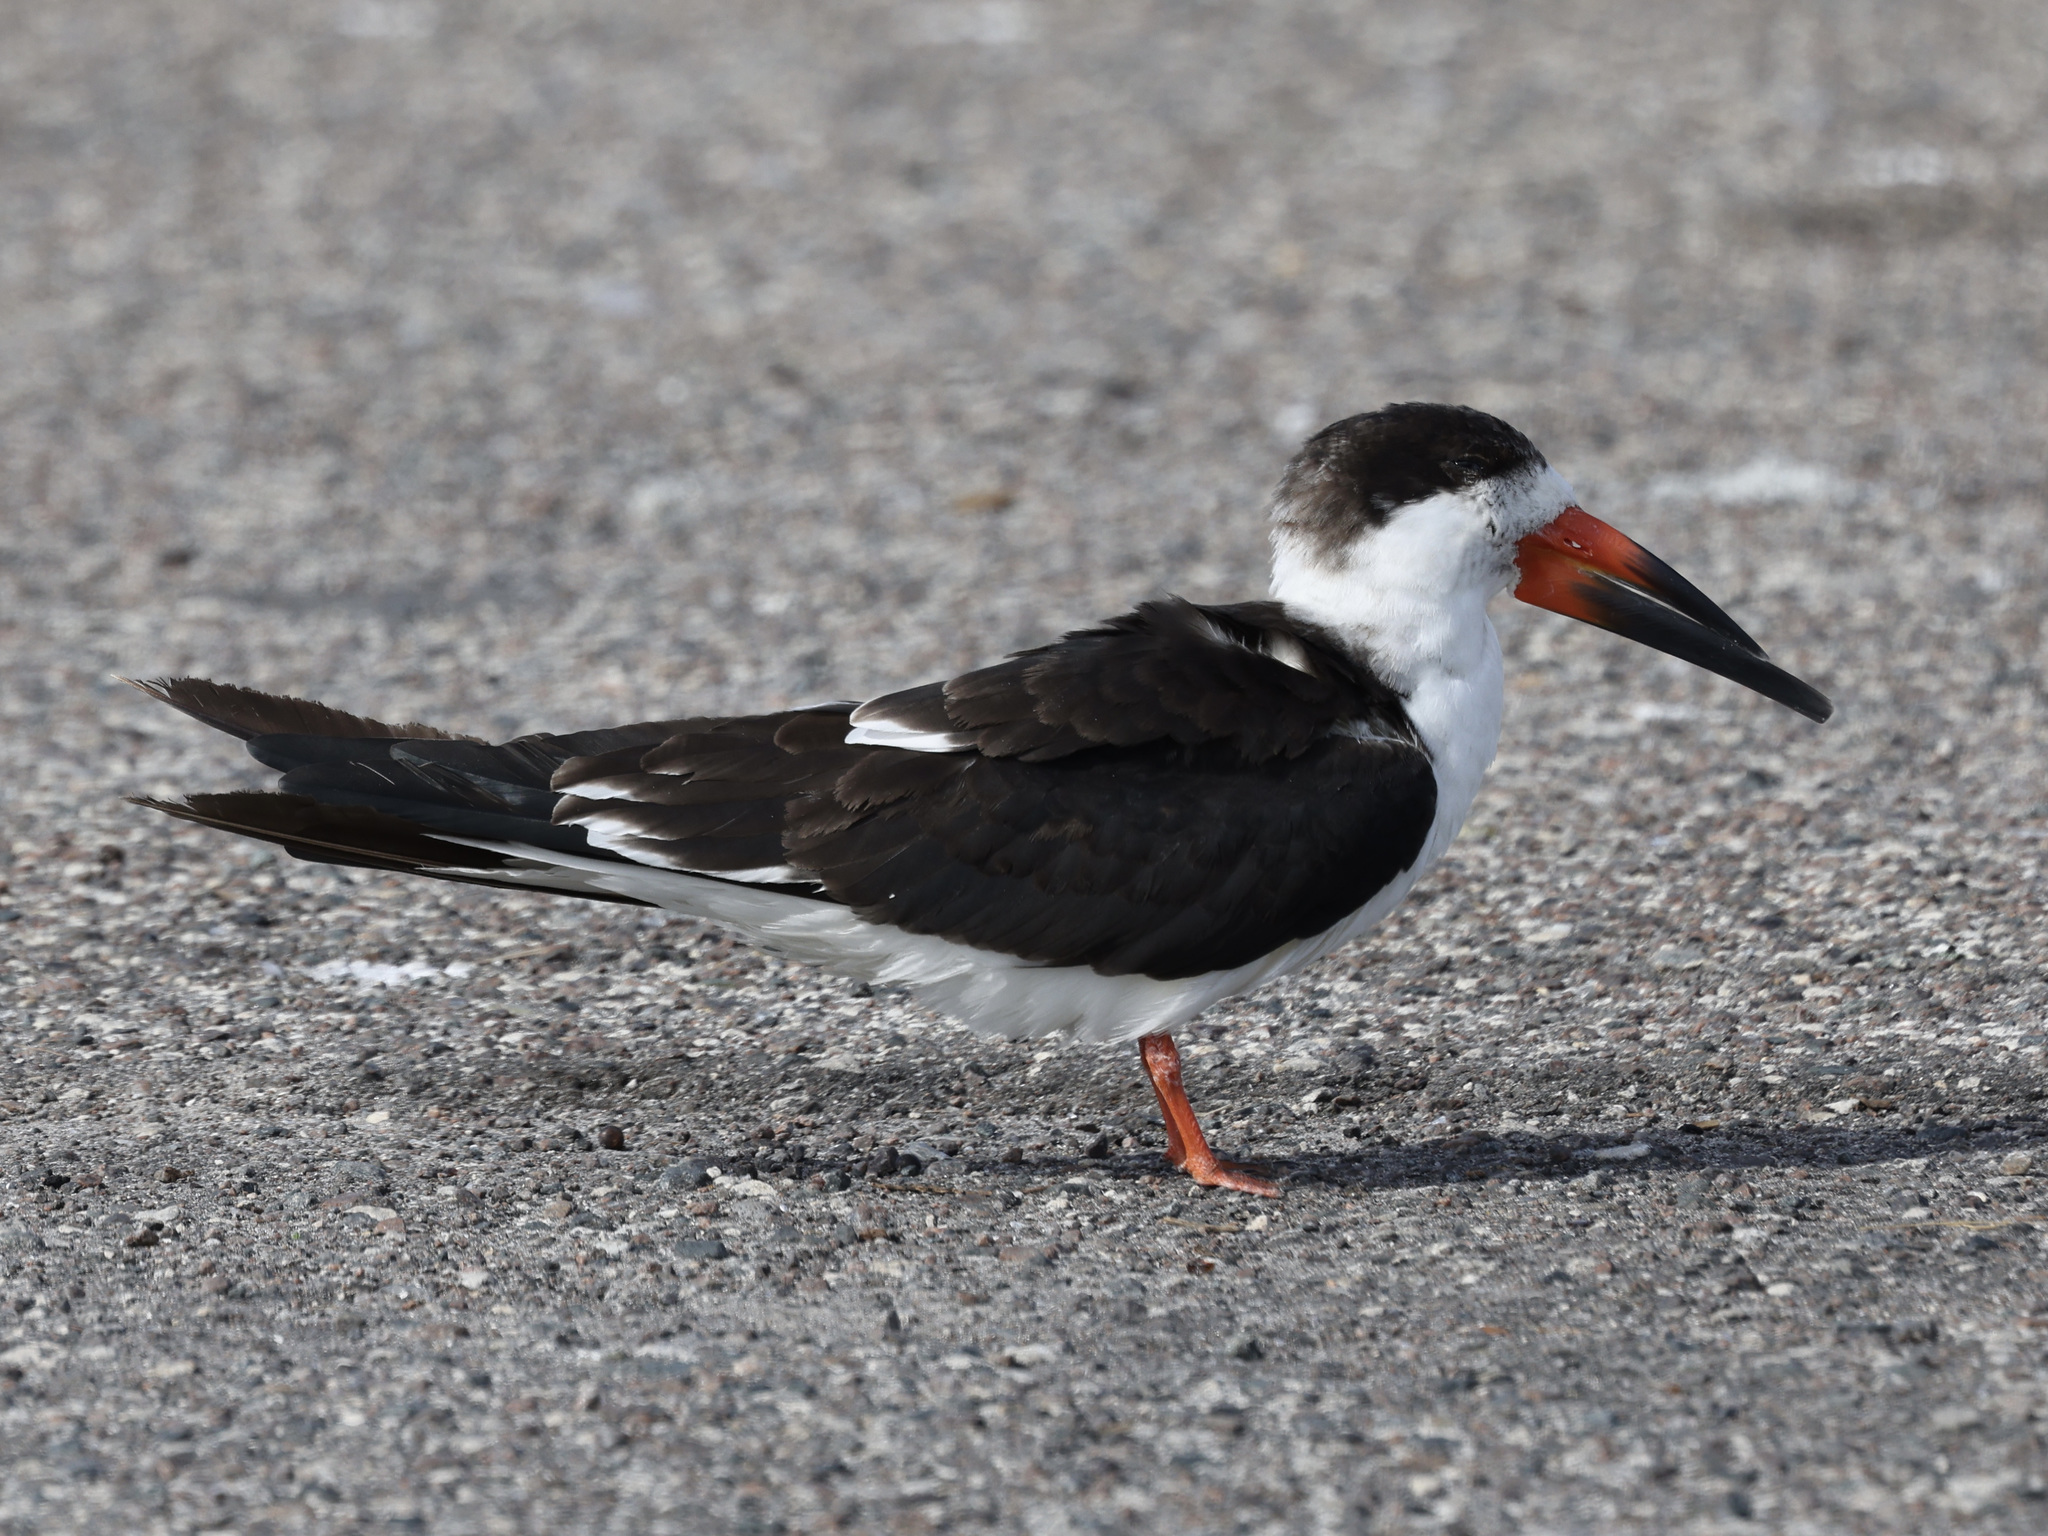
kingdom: Animalia
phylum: Chordata
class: Aves
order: Charadriiformes
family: Laridae
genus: Rynchops
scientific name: Rynchops niger
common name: Black skimmer
